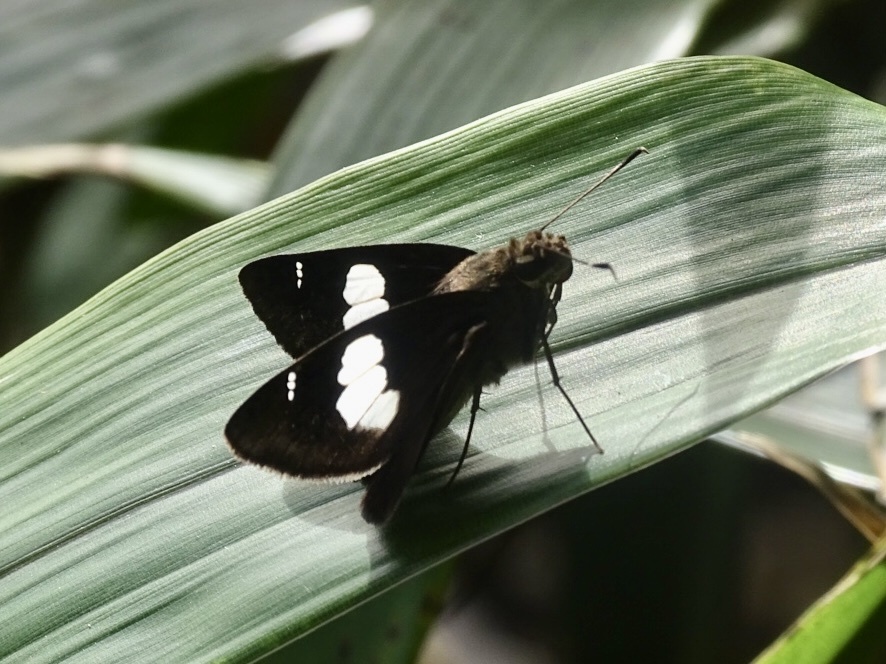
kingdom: Animalia
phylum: Arthropoda
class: Insecta
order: Lepidoptera
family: Hesperiidae
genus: Notocrypta
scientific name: Notocrypta curvifascia
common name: Restricted demon
